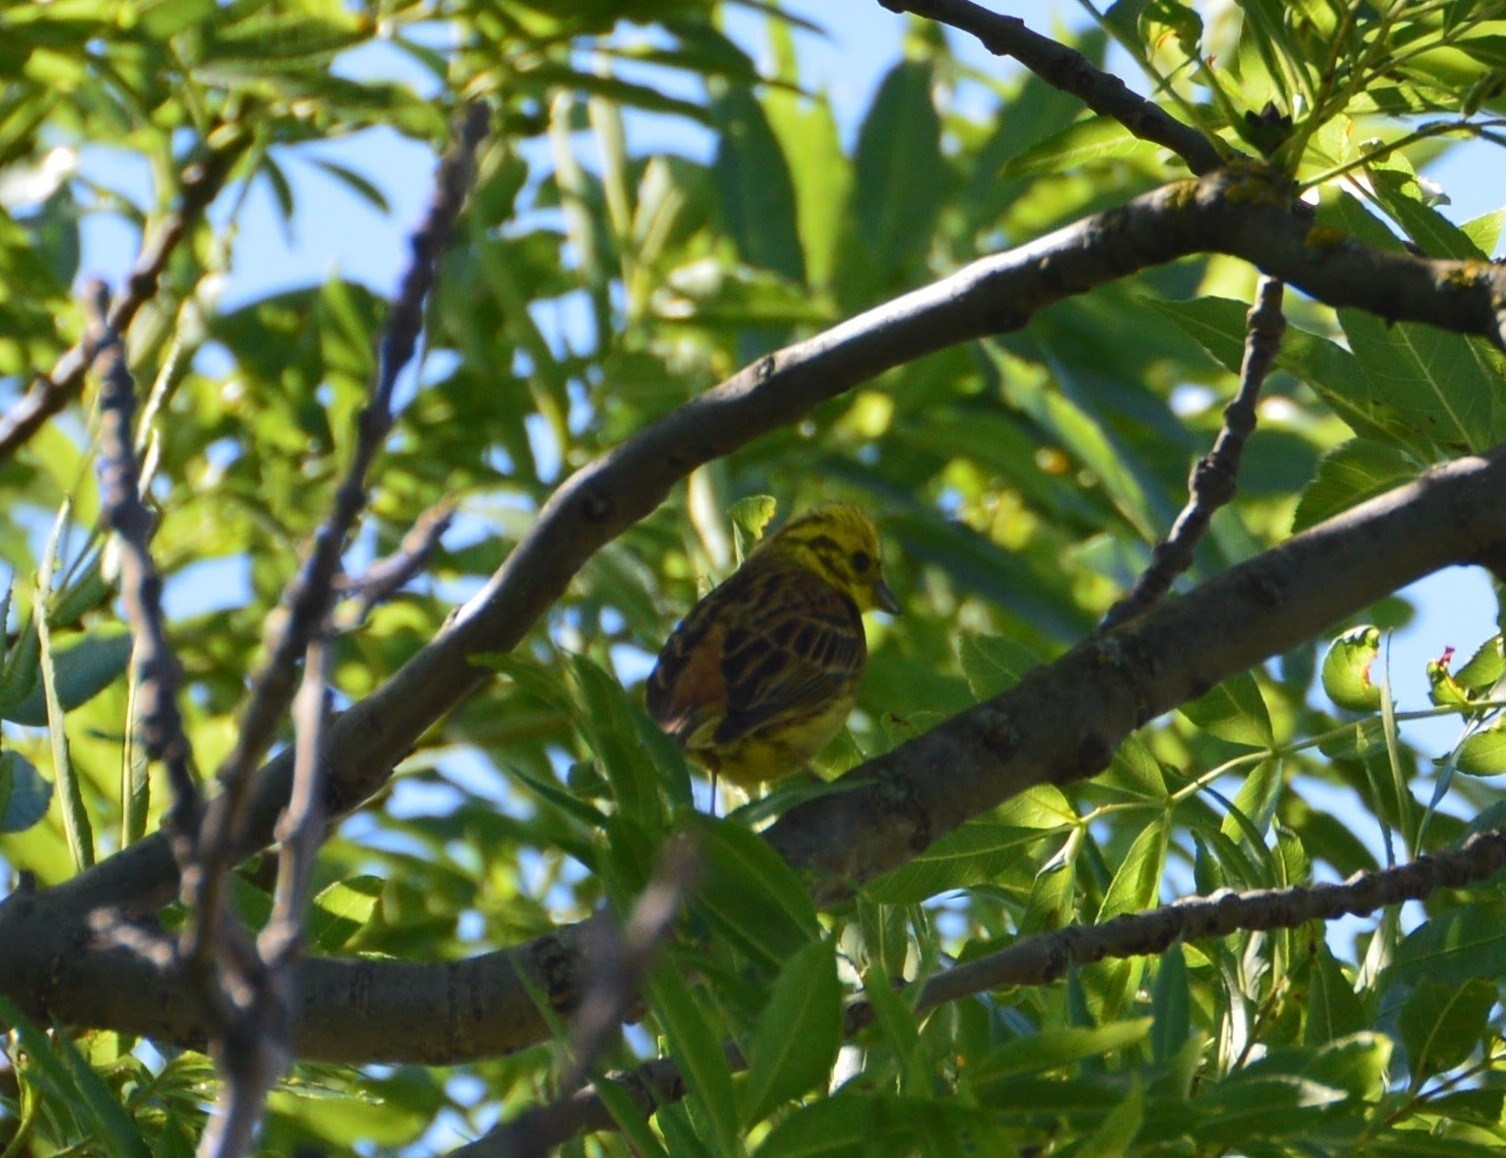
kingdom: Animalia
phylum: Chordata
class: Aves
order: Passeriformes
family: Emberizidae
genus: Emberiza
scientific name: Emberiza citrinella
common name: Yellowhammer
